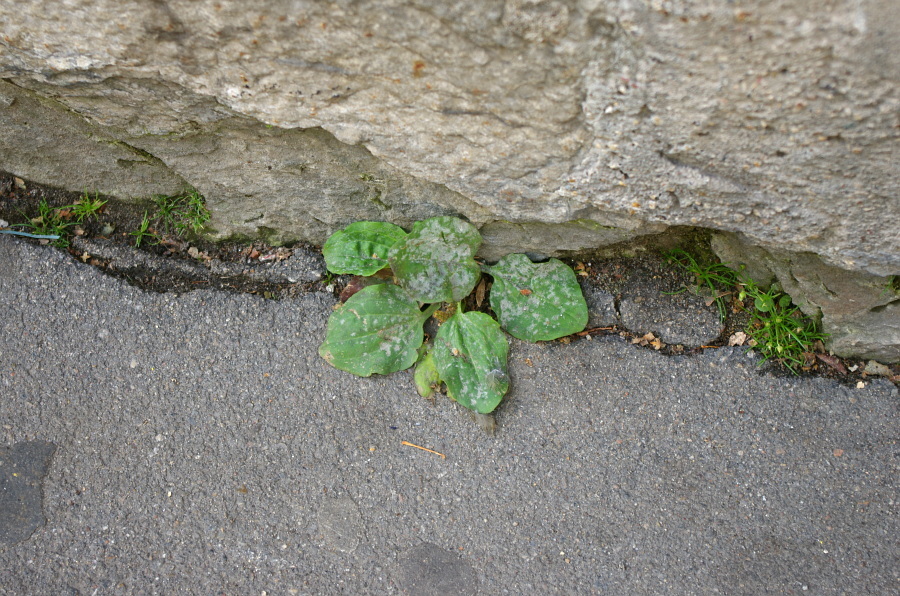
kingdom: Plantae
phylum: Tracheophyta
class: Magnoliopsida
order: Lamiales
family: Plantaginaceae
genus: Plantago
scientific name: Plantago major
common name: Common plantain
